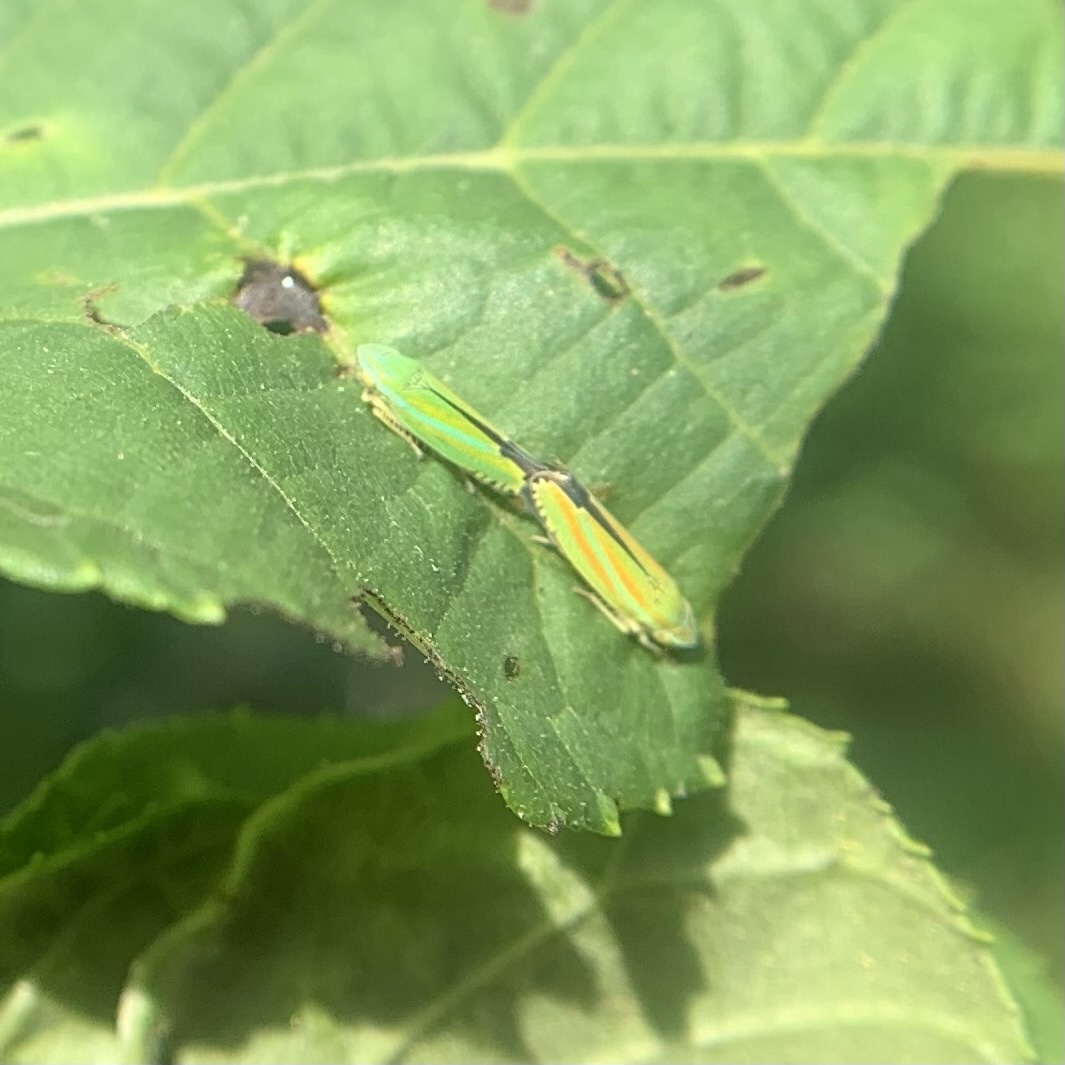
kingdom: Animalia
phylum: Arthropoda
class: Insecta
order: Hemiptera
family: Cicadellidae
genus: Graphocephala
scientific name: Graphocephala versuta
